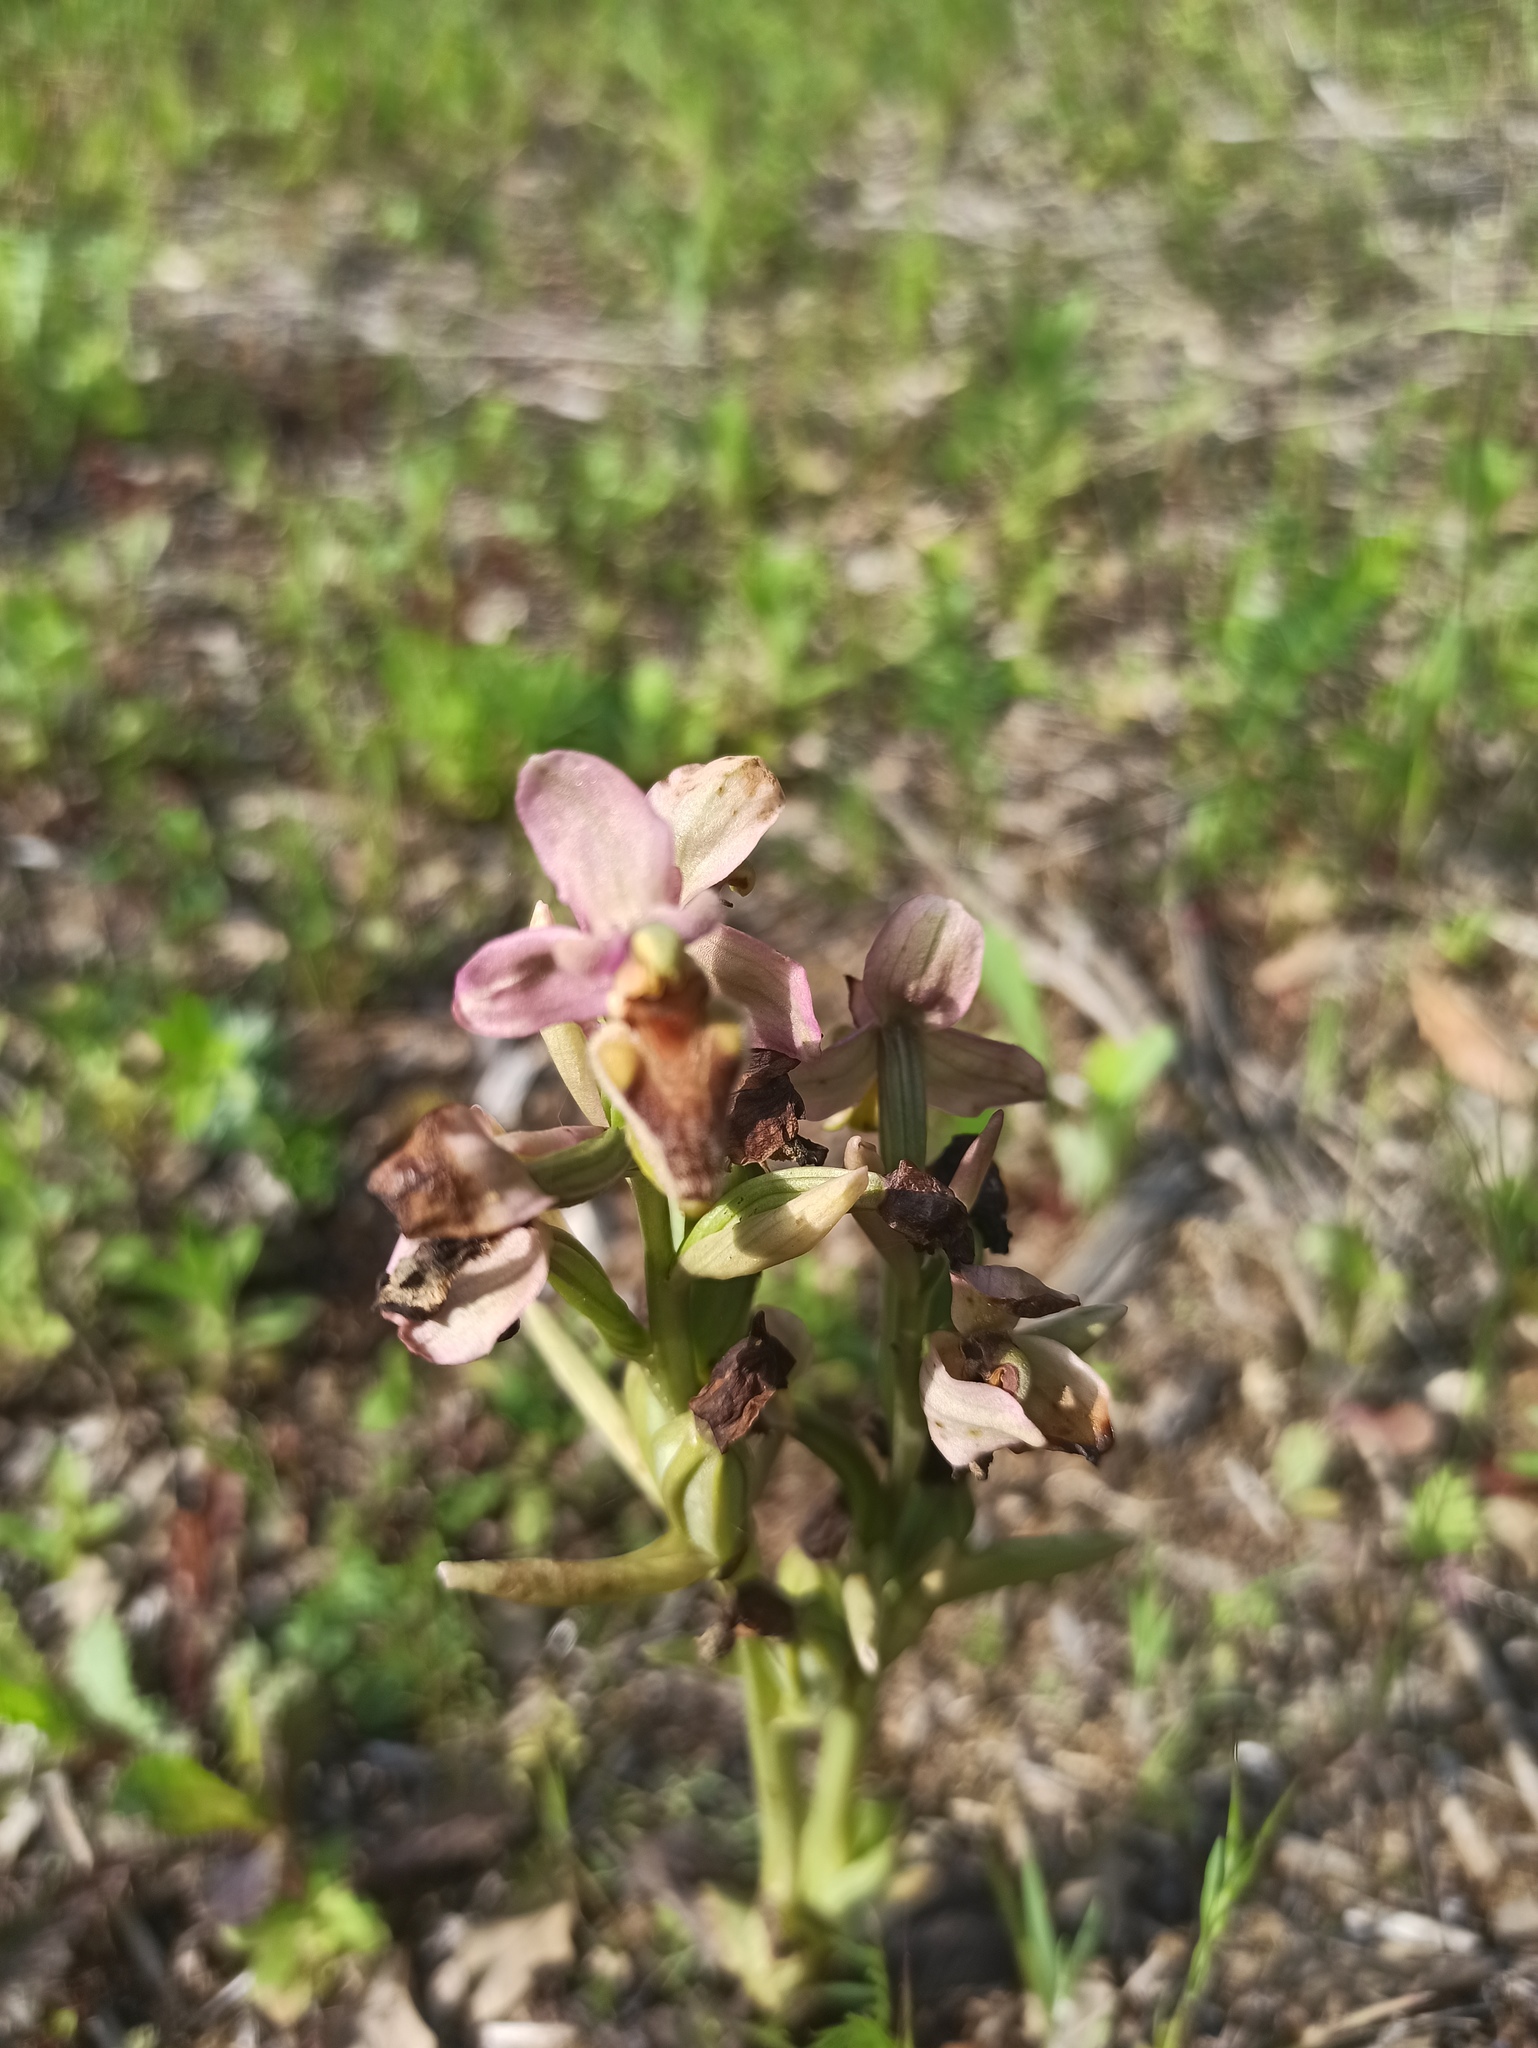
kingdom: Plantae
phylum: Tracheophyta
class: Liliopsida
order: Asparagales
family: Orchidaceae
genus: Ophrys
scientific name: Ophrys tenthredinifera
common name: Sawfly orchid
